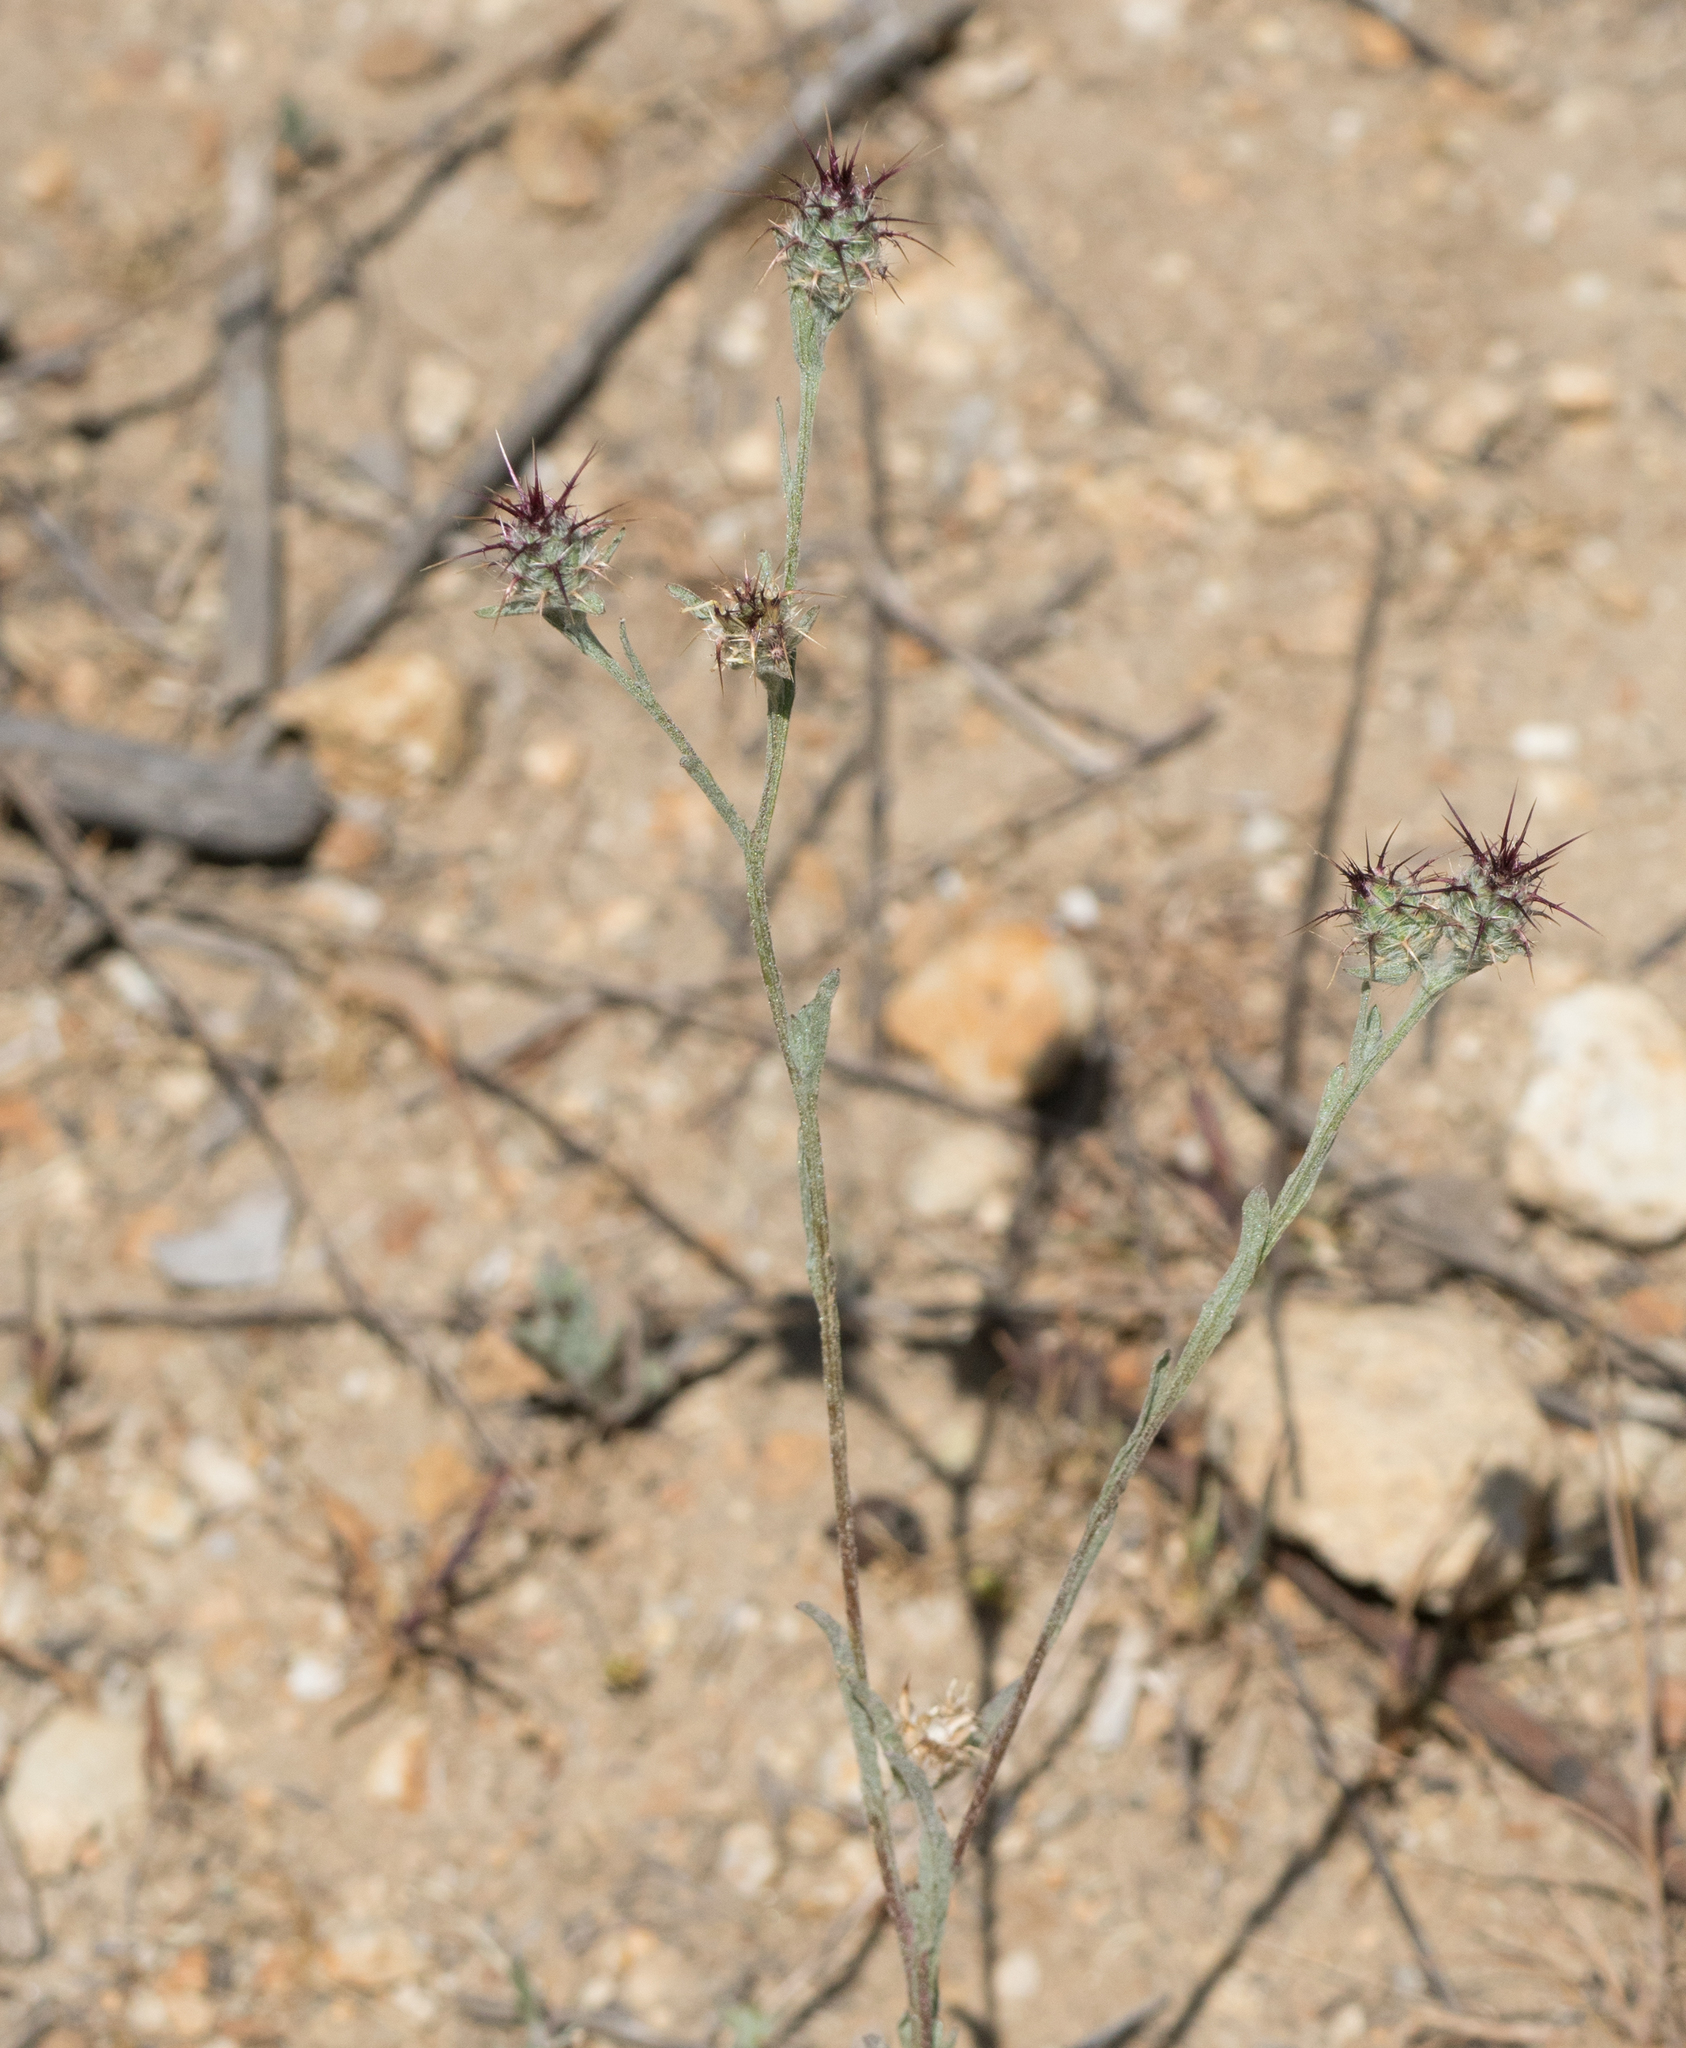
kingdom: Plantae
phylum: Tracheophyta
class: Magnoliopsida
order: Asterales
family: Asteraceae
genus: Centaurea
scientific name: Centaurea melitensis
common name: Maltese star-thistle
